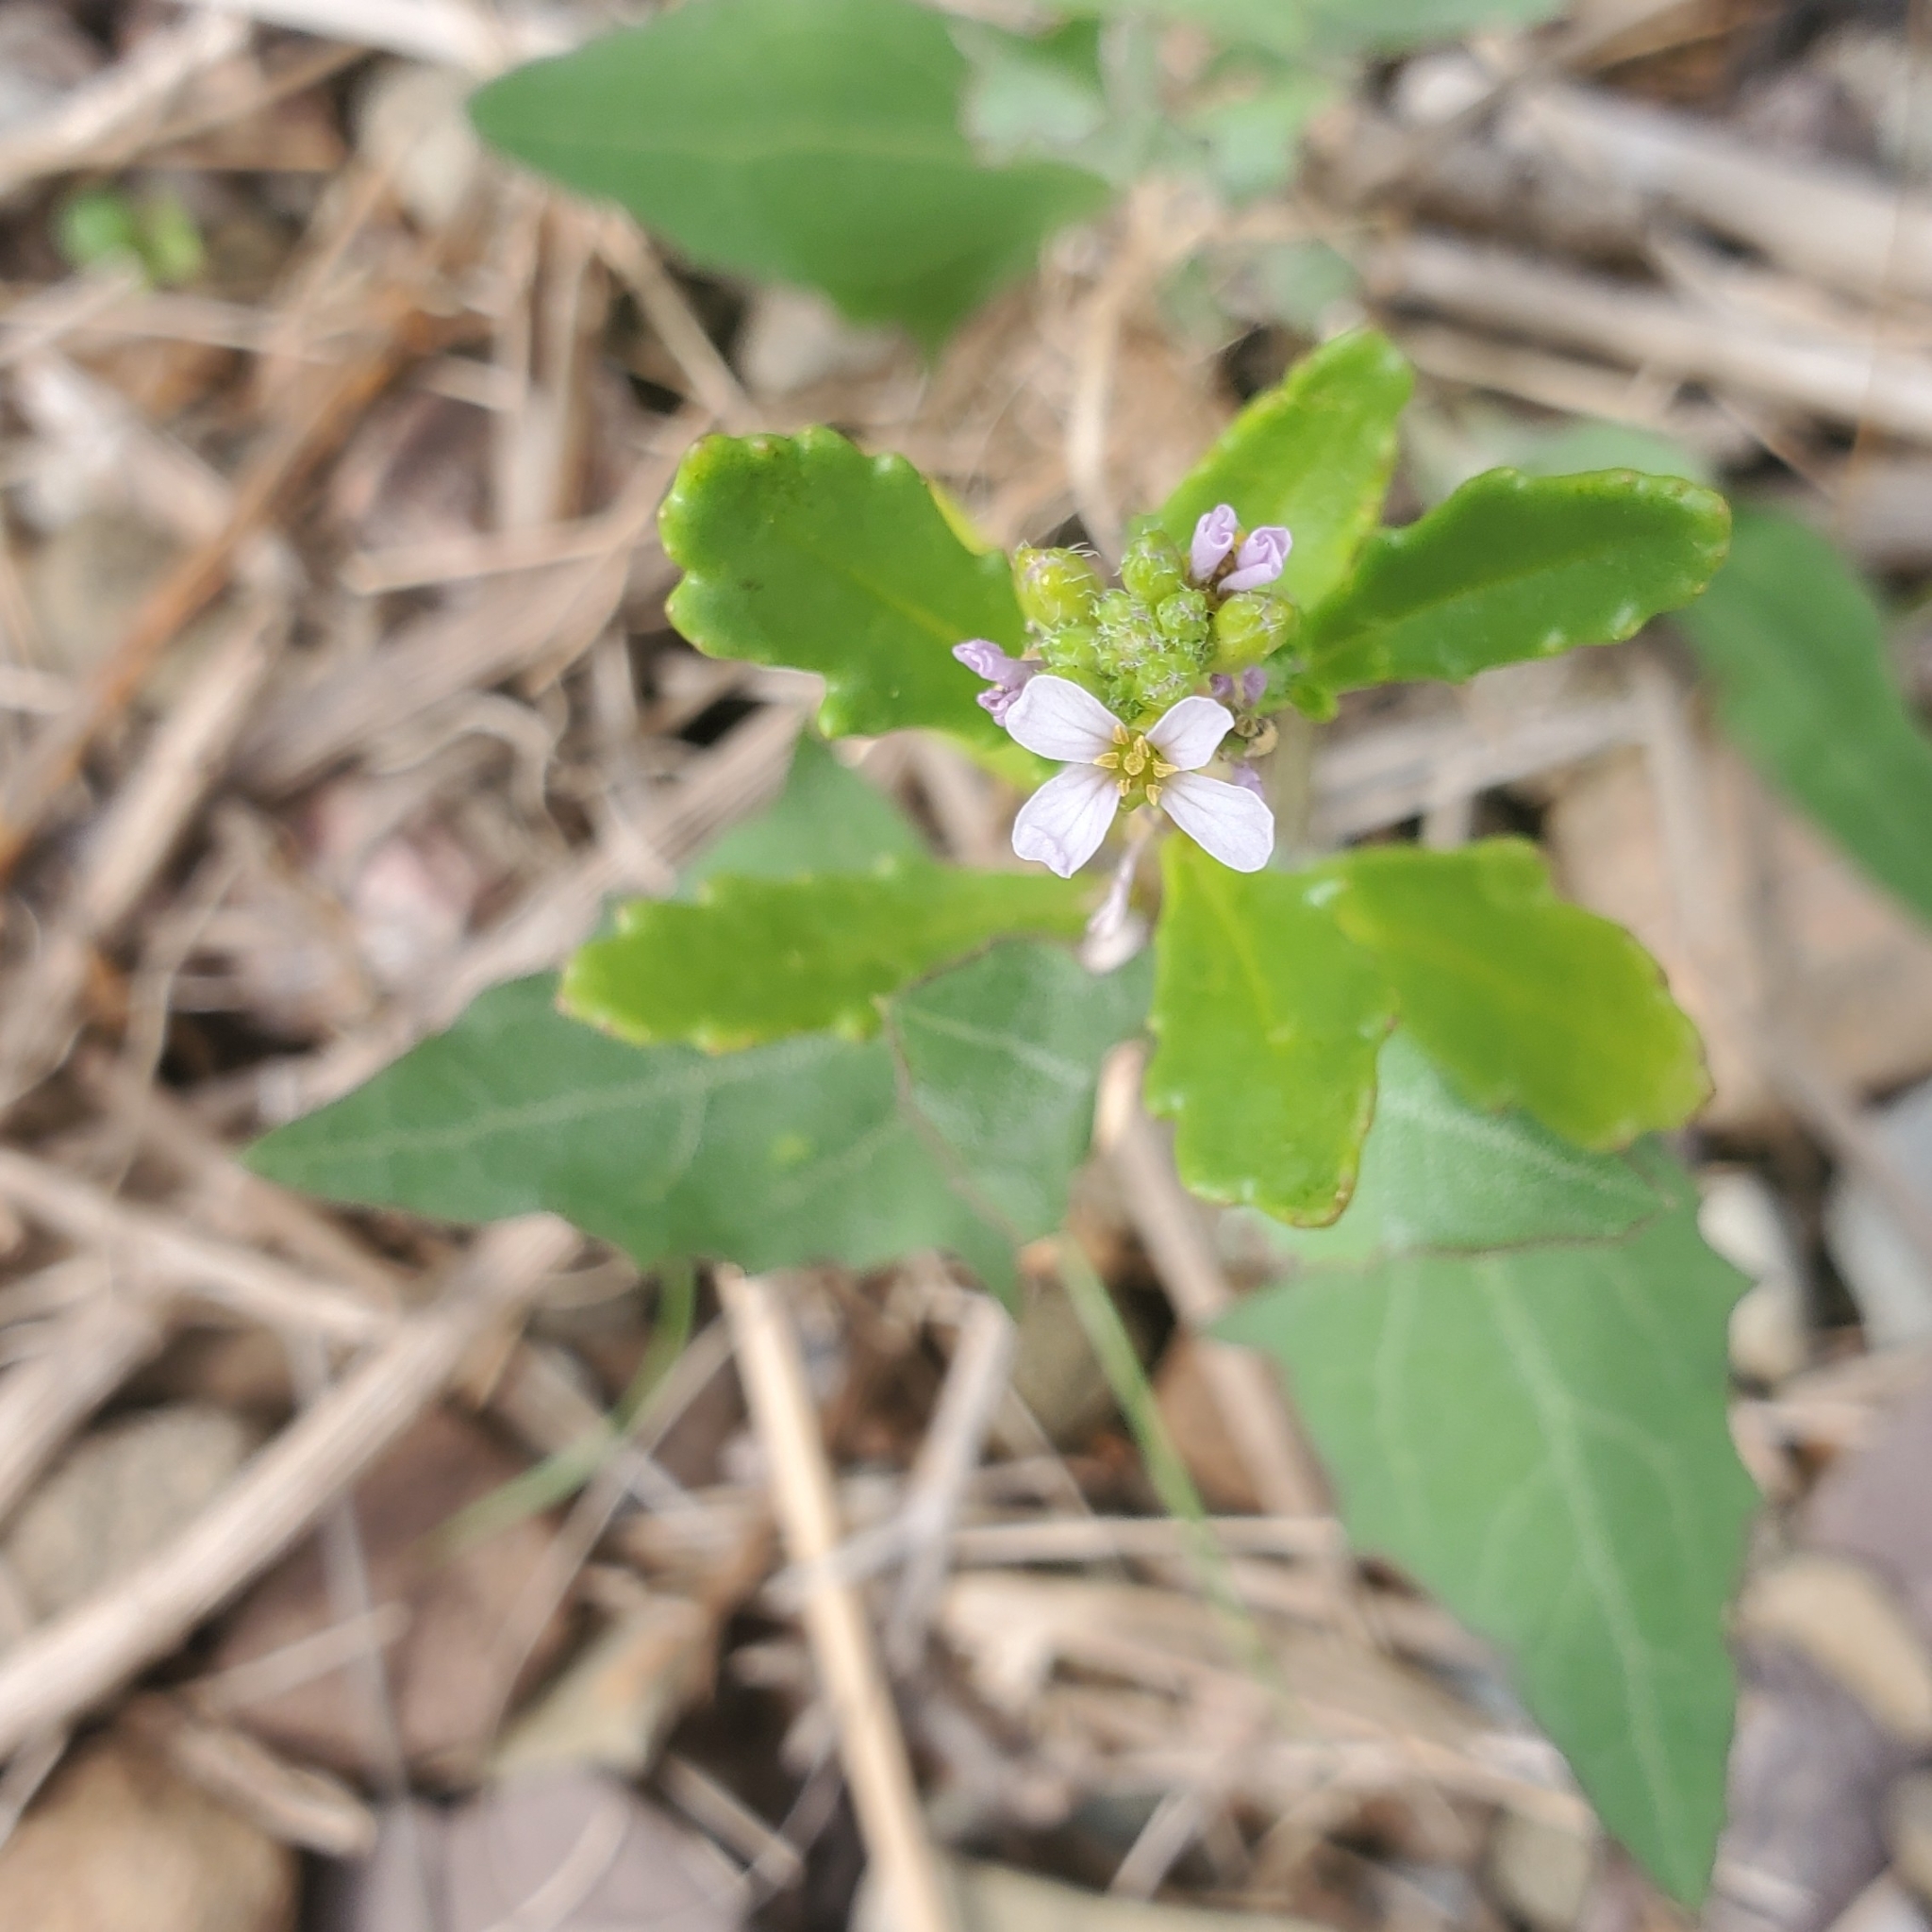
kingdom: Plantae
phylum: Tracheophyta
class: Magnoliopsida
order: Brassicales
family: Brassicaceae
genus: Cakile
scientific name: Cakile edentula
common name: American sea rocket
